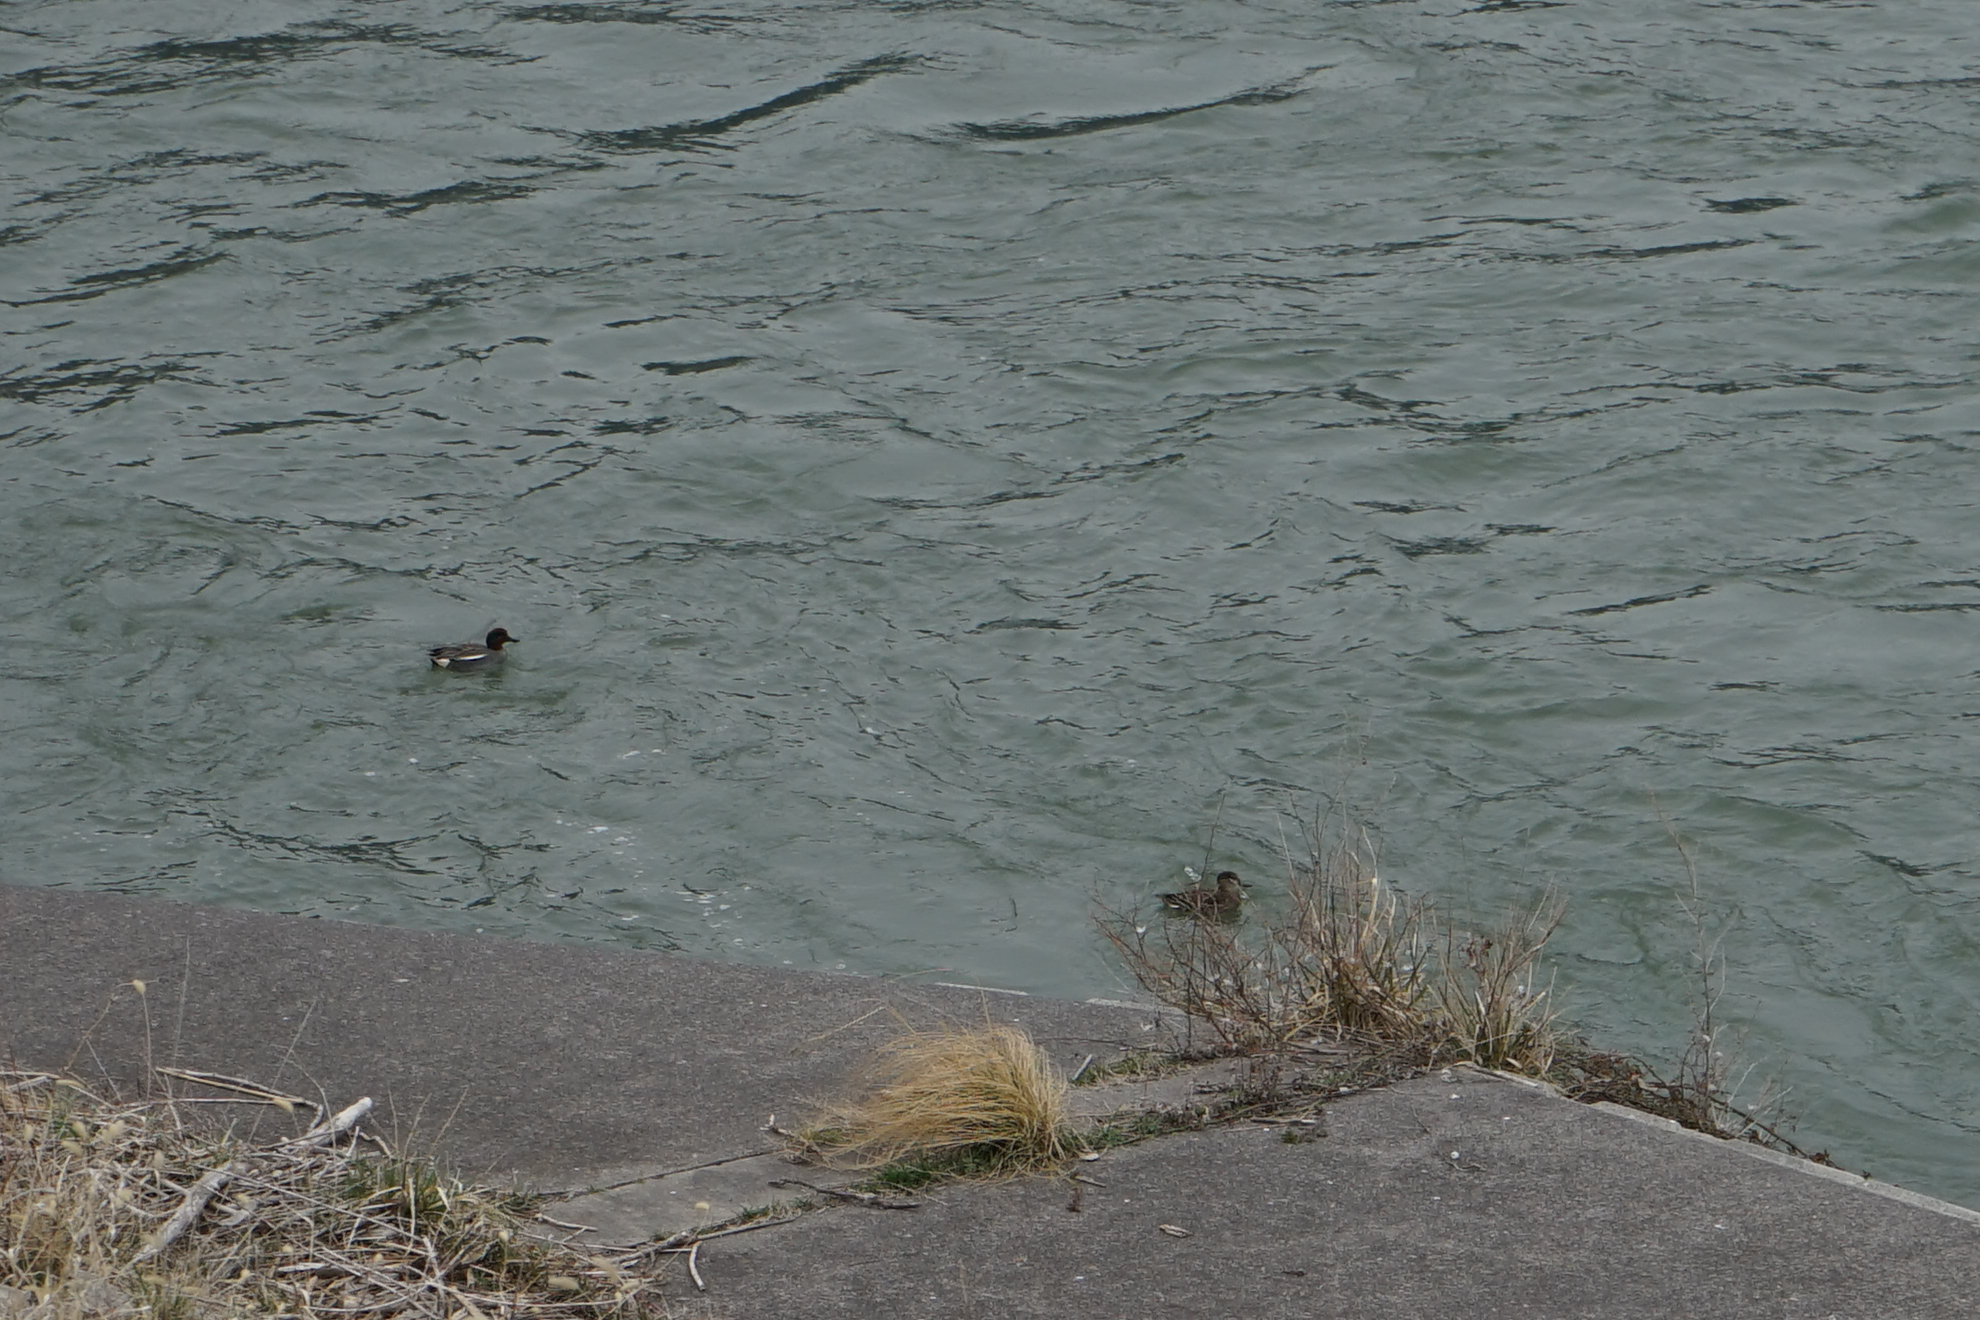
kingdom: Animalia
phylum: Chordata
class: Aves
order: Anseriformes
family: Anatidae
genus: Anas
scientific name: Anas crecca
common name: Eurasian teal
